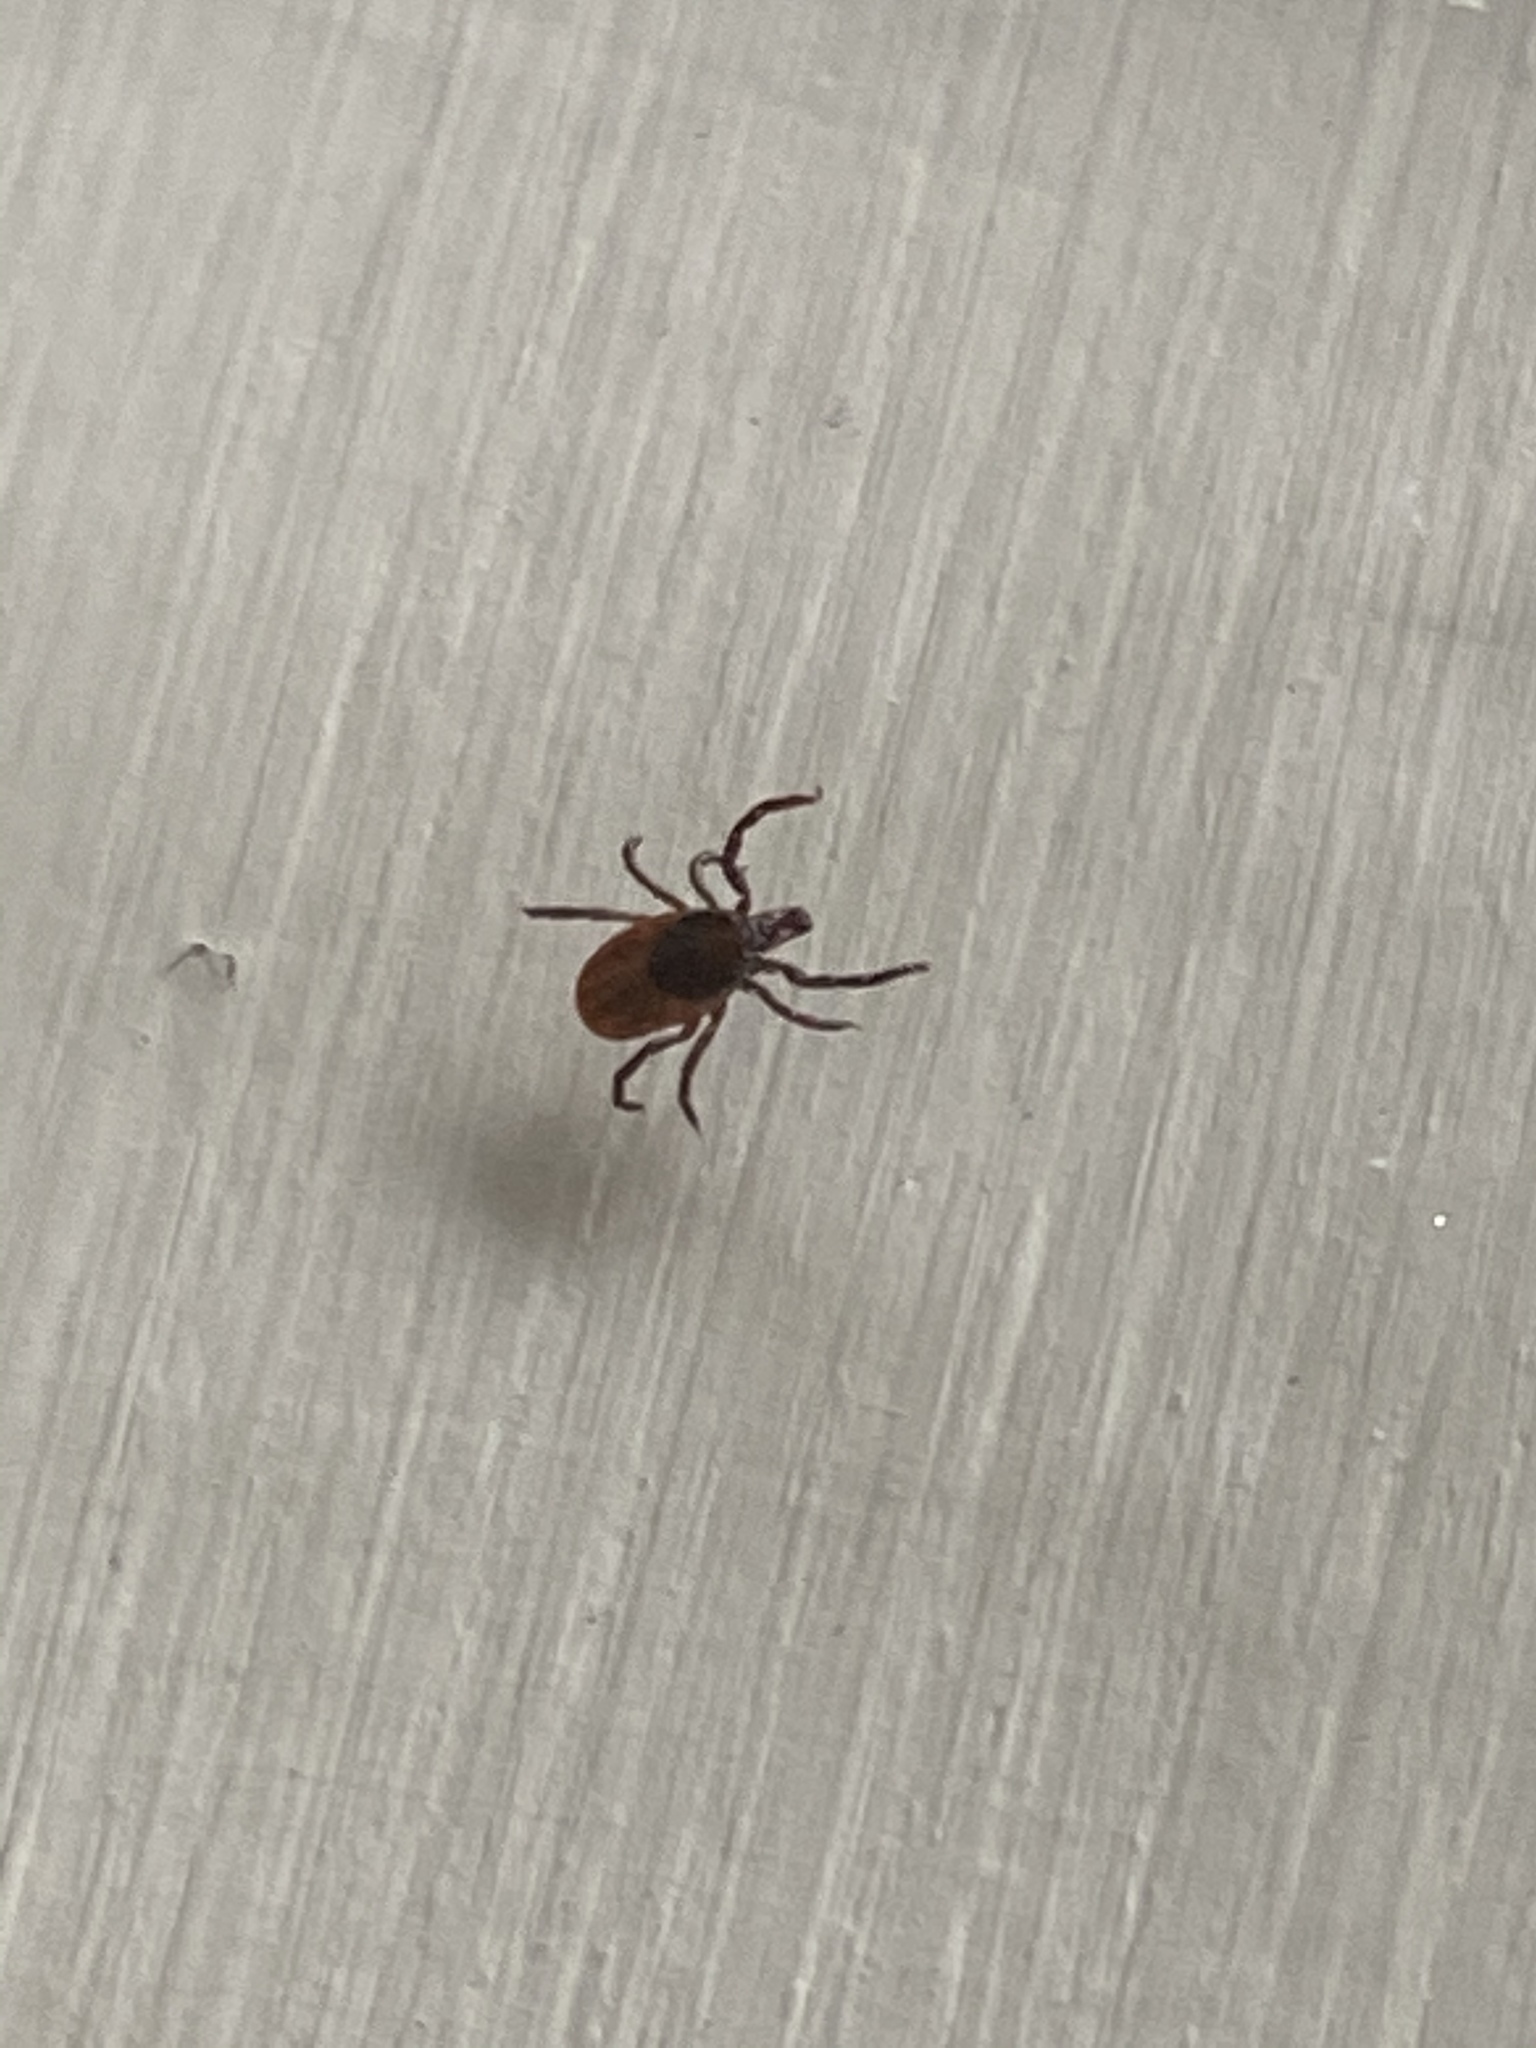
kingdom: Animalia
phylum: Arthropoda
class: Arachnida
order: Ixodida
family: Ixodidae
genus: Ixodes
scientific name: Ixodes scapularis
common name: Black legged tick
